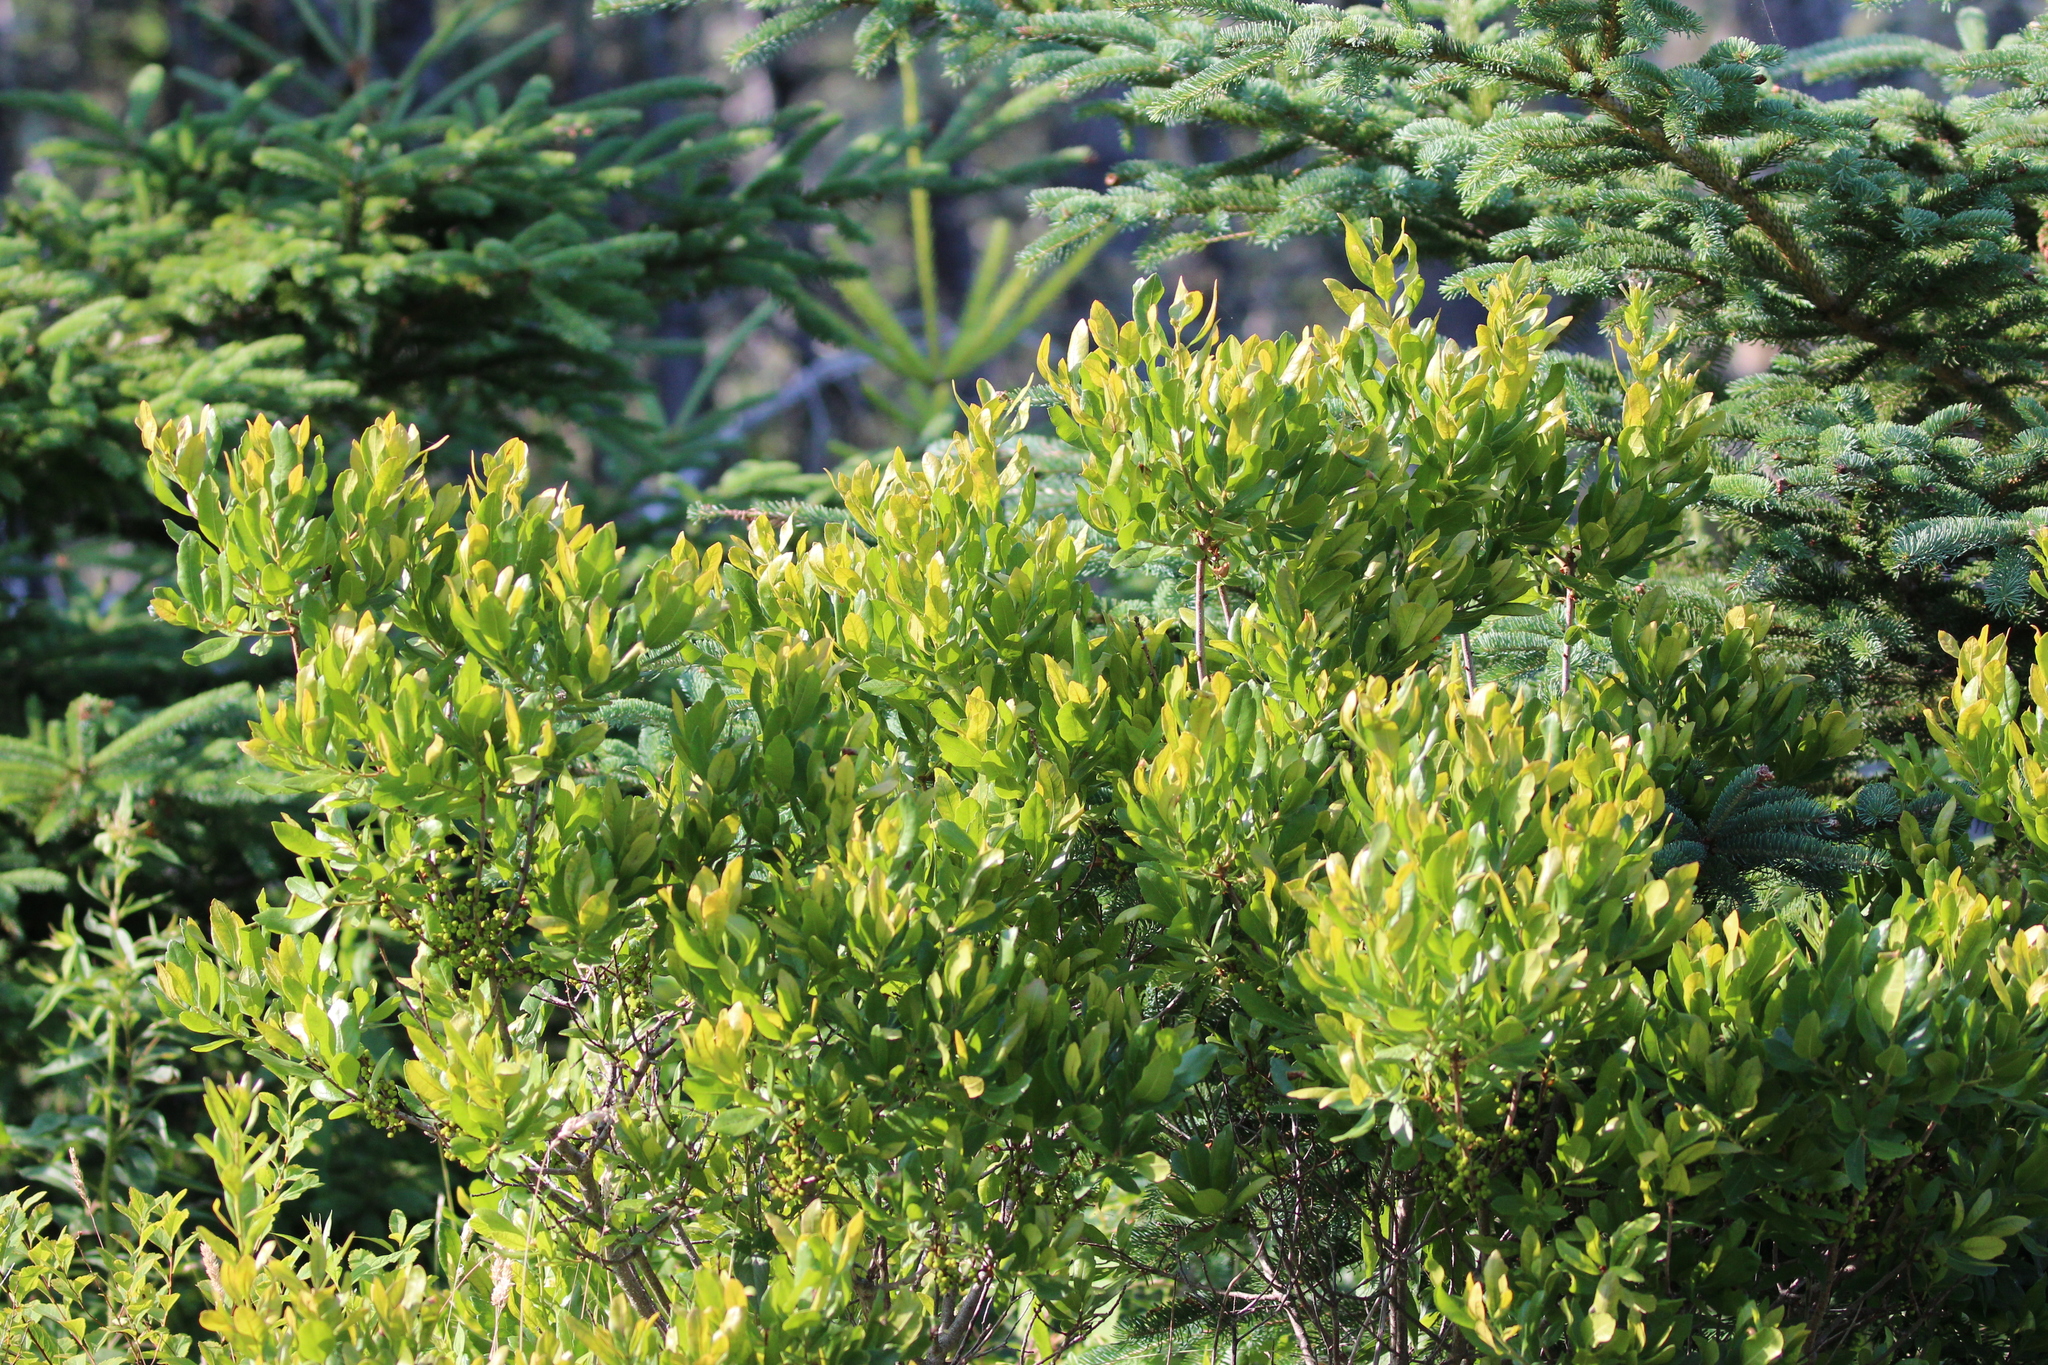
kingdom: Plantae
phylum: Tracheophyta
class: Magnoliopsida
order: Fagales
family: Myricaceae
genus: Morella
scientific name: Morella pensylvanica
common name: Northern bayberry
